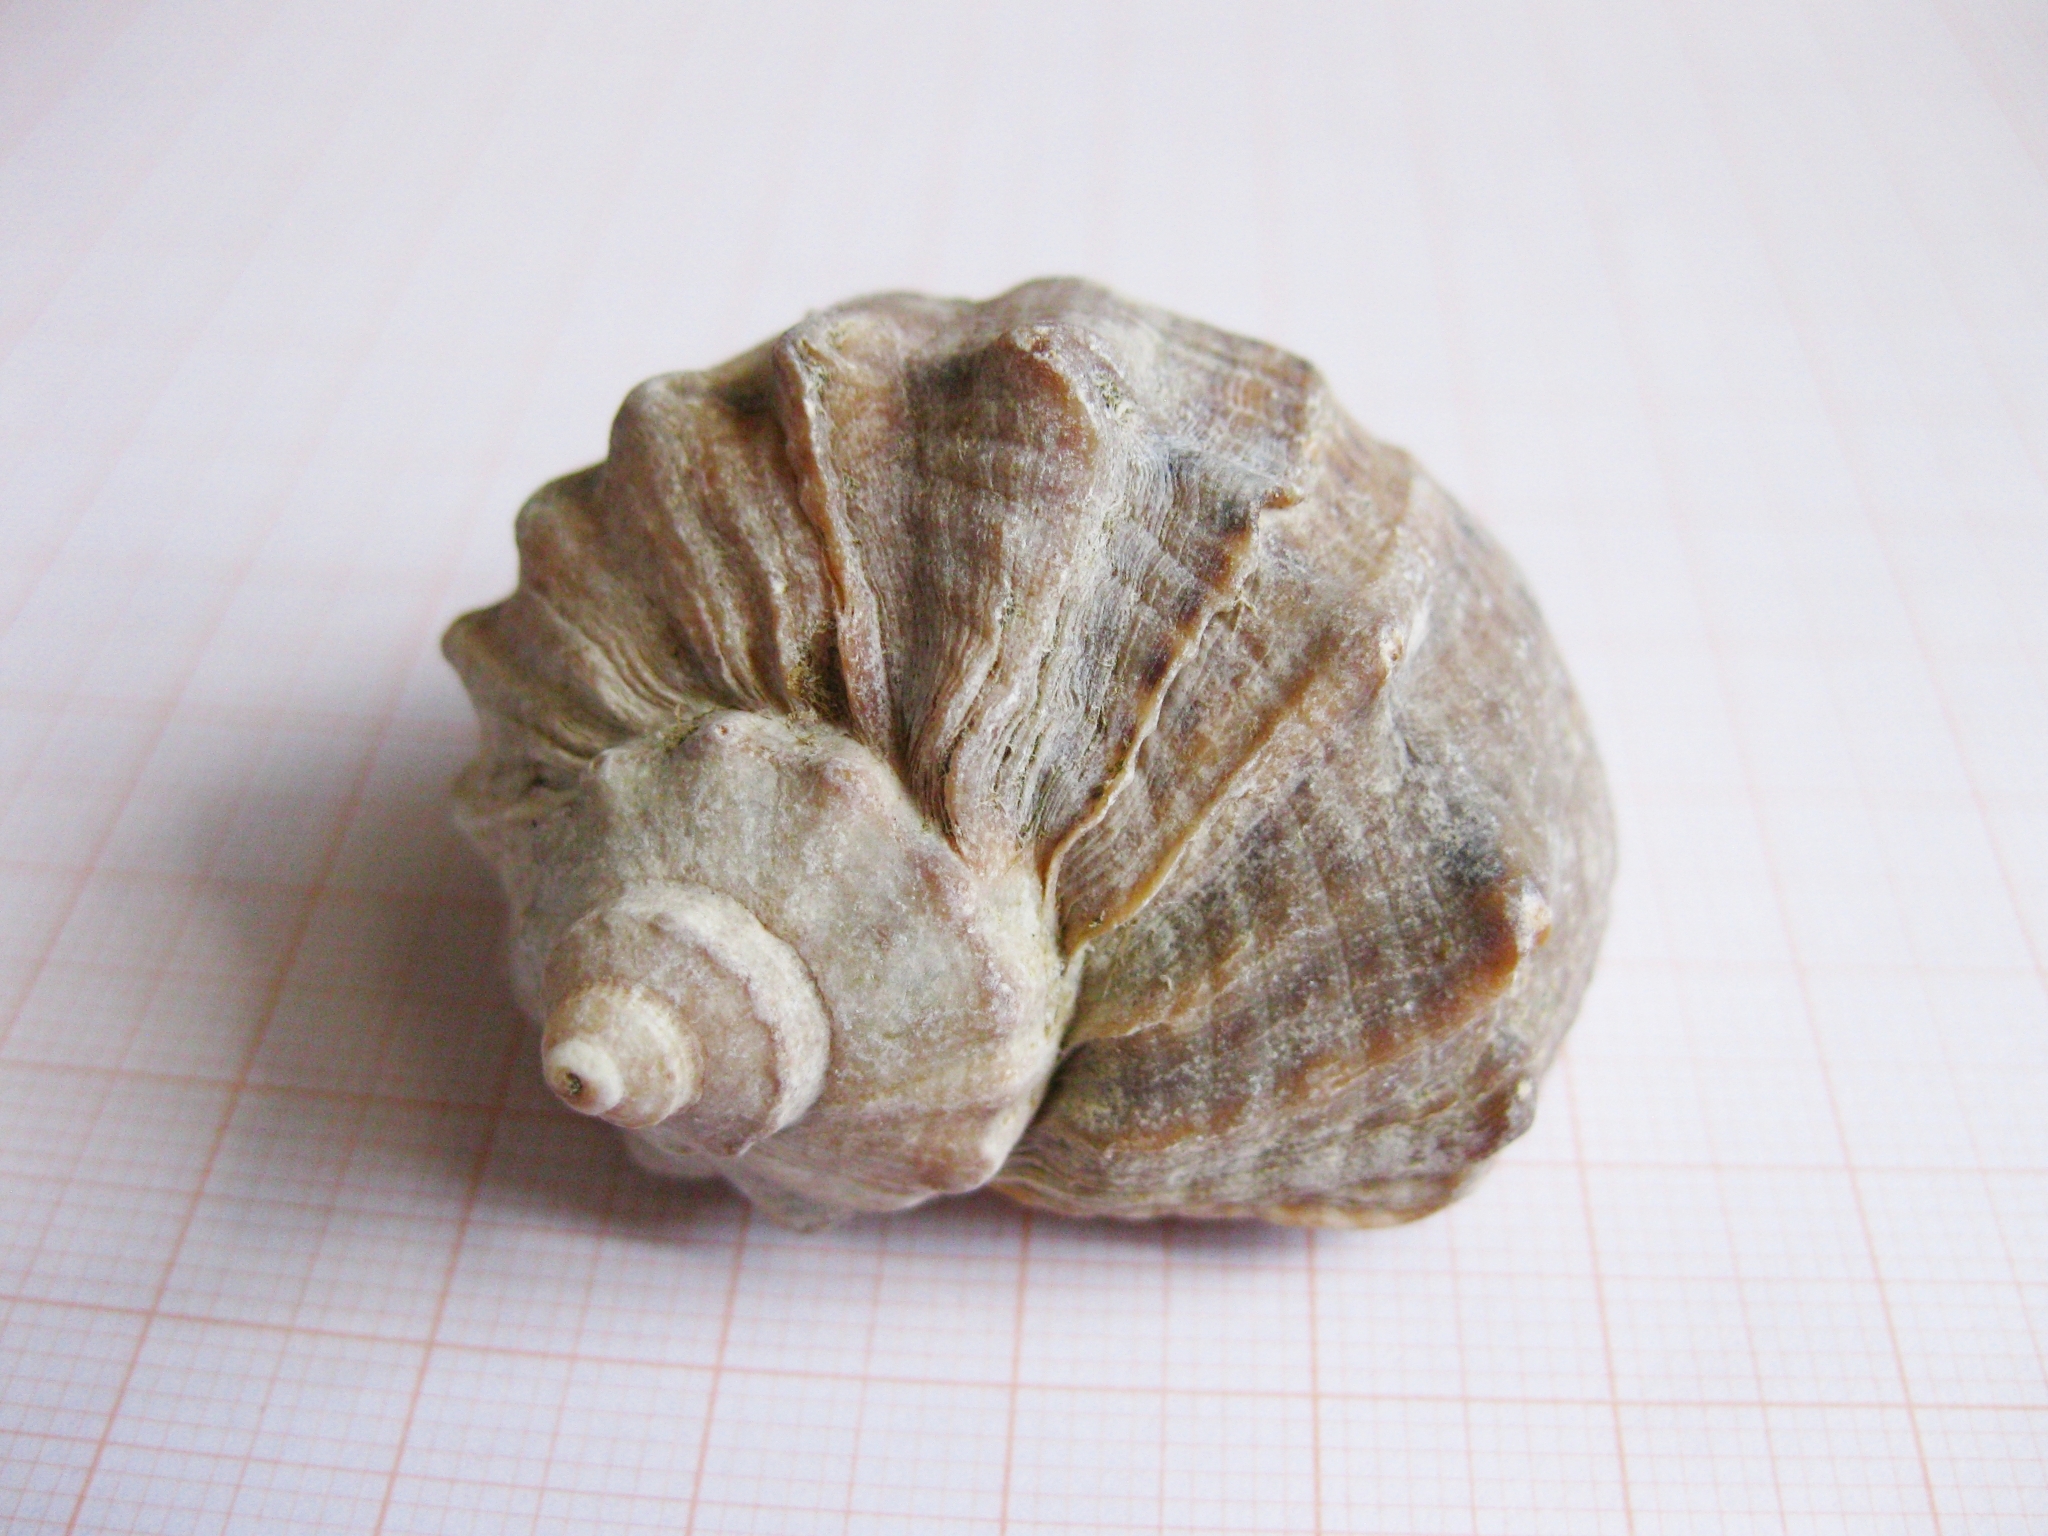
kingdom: Animalia
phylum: Mollusca
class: Gastropoda
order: Neogastropoda
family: Muricidae
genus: Rapana
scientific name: Rapana venosa
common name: Veined rapa whelk
